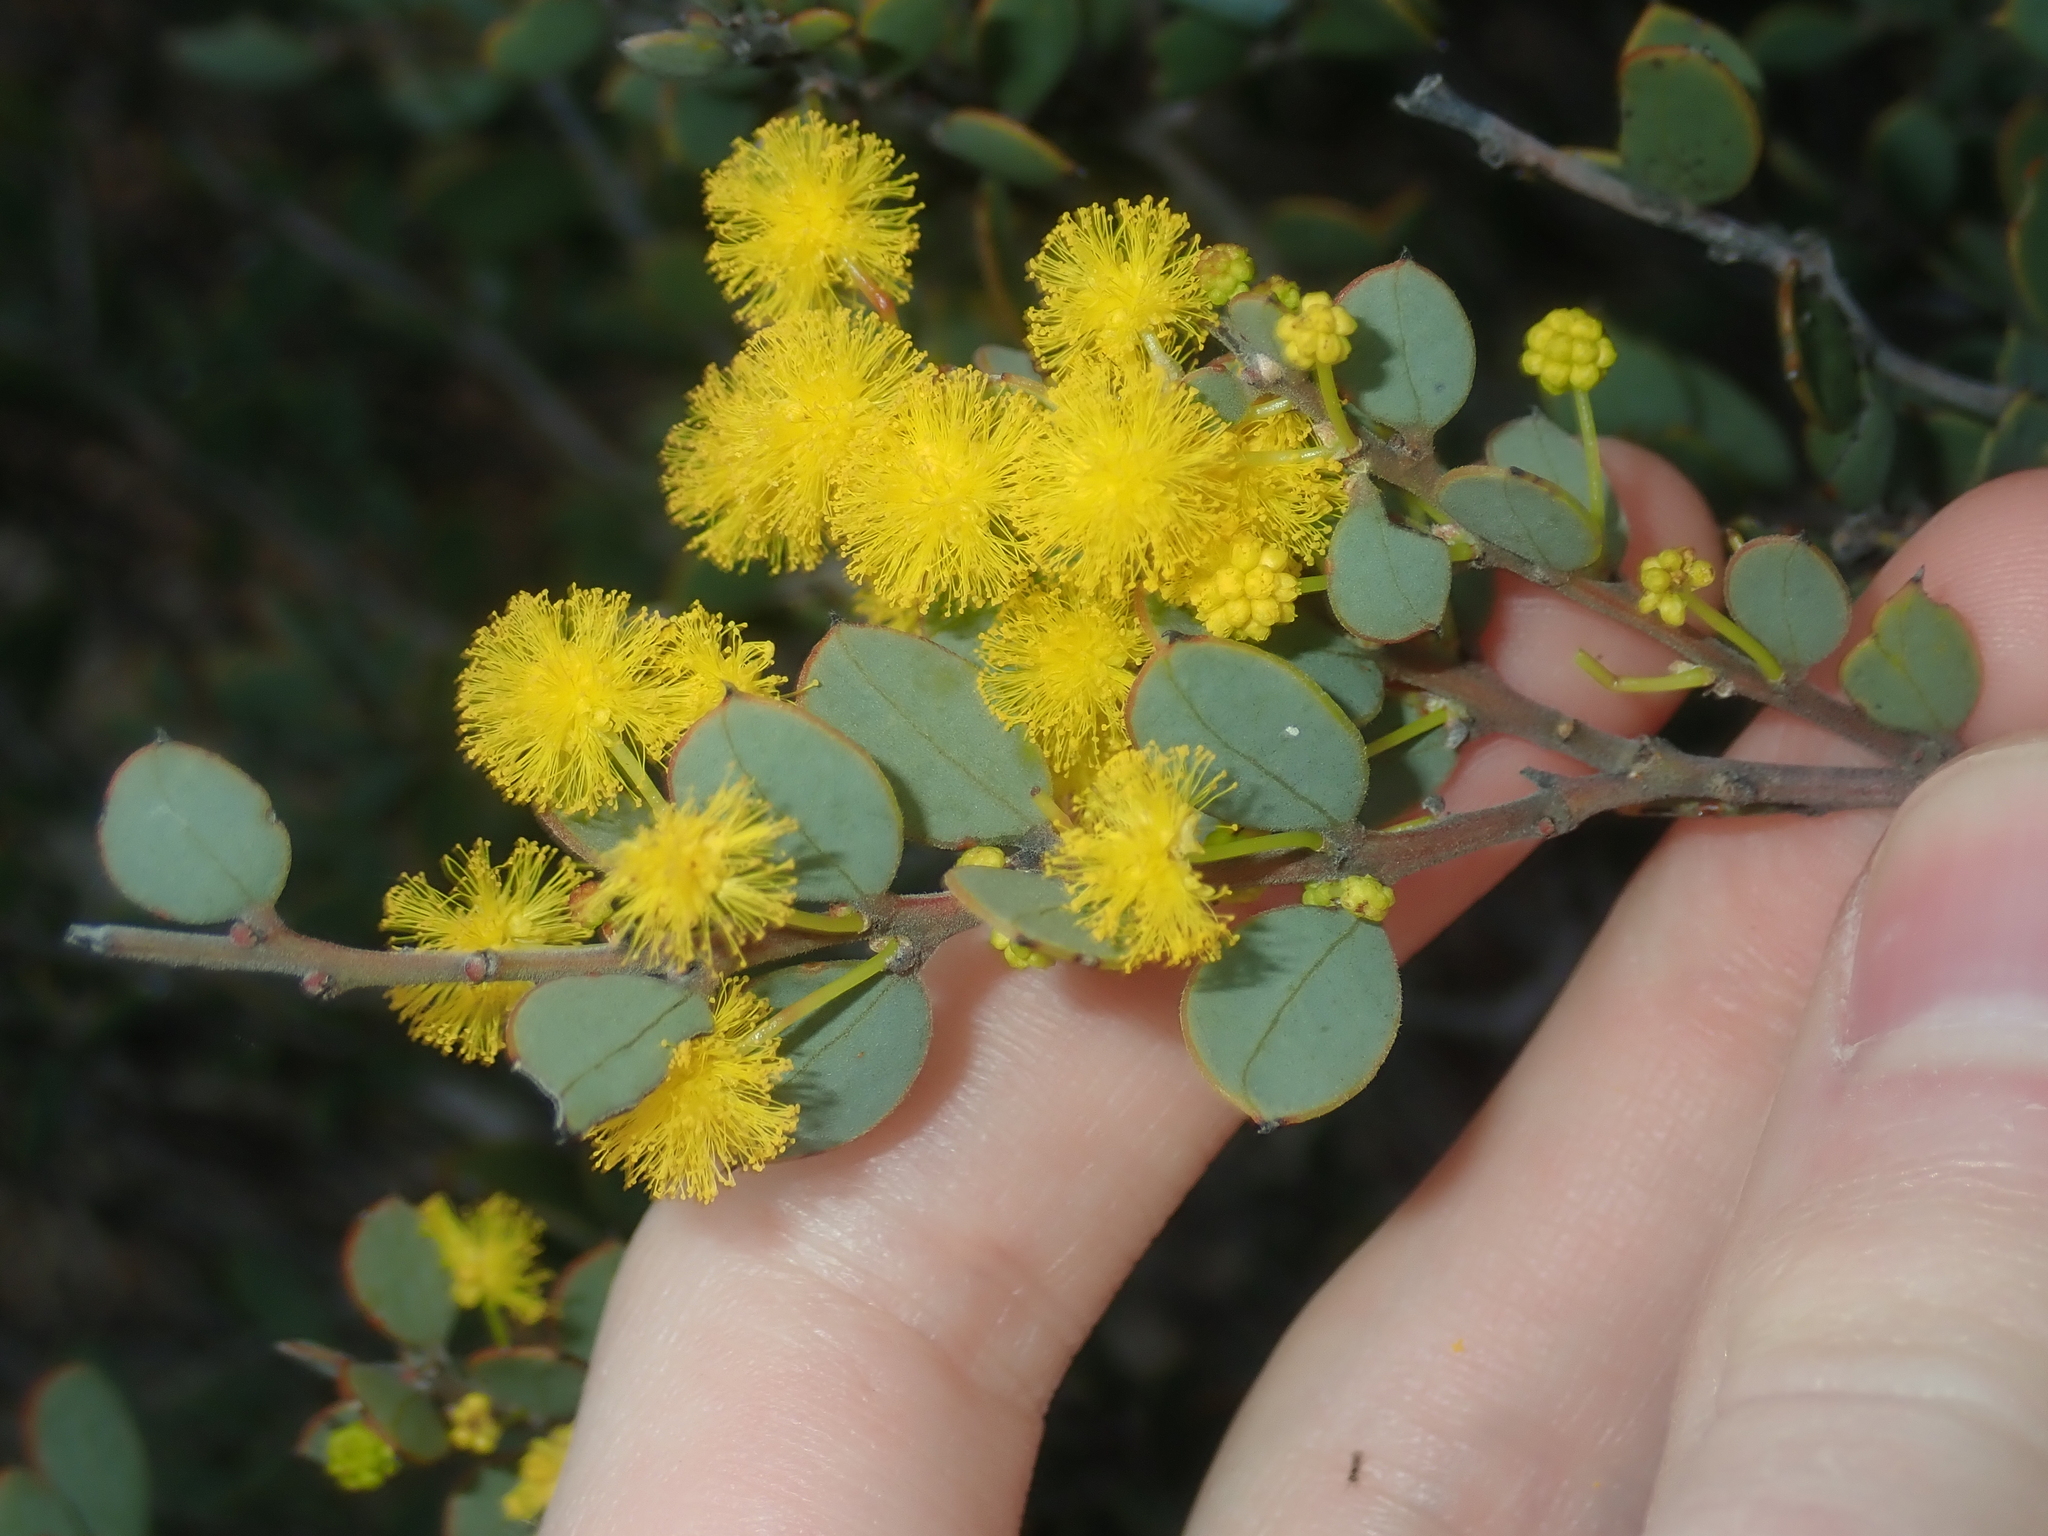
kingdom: Plantae
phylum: Tracheophyta
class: Magnoliopsida
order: Fabales
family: Fabaceae
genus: Acacia
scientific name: Acacia merrallii
